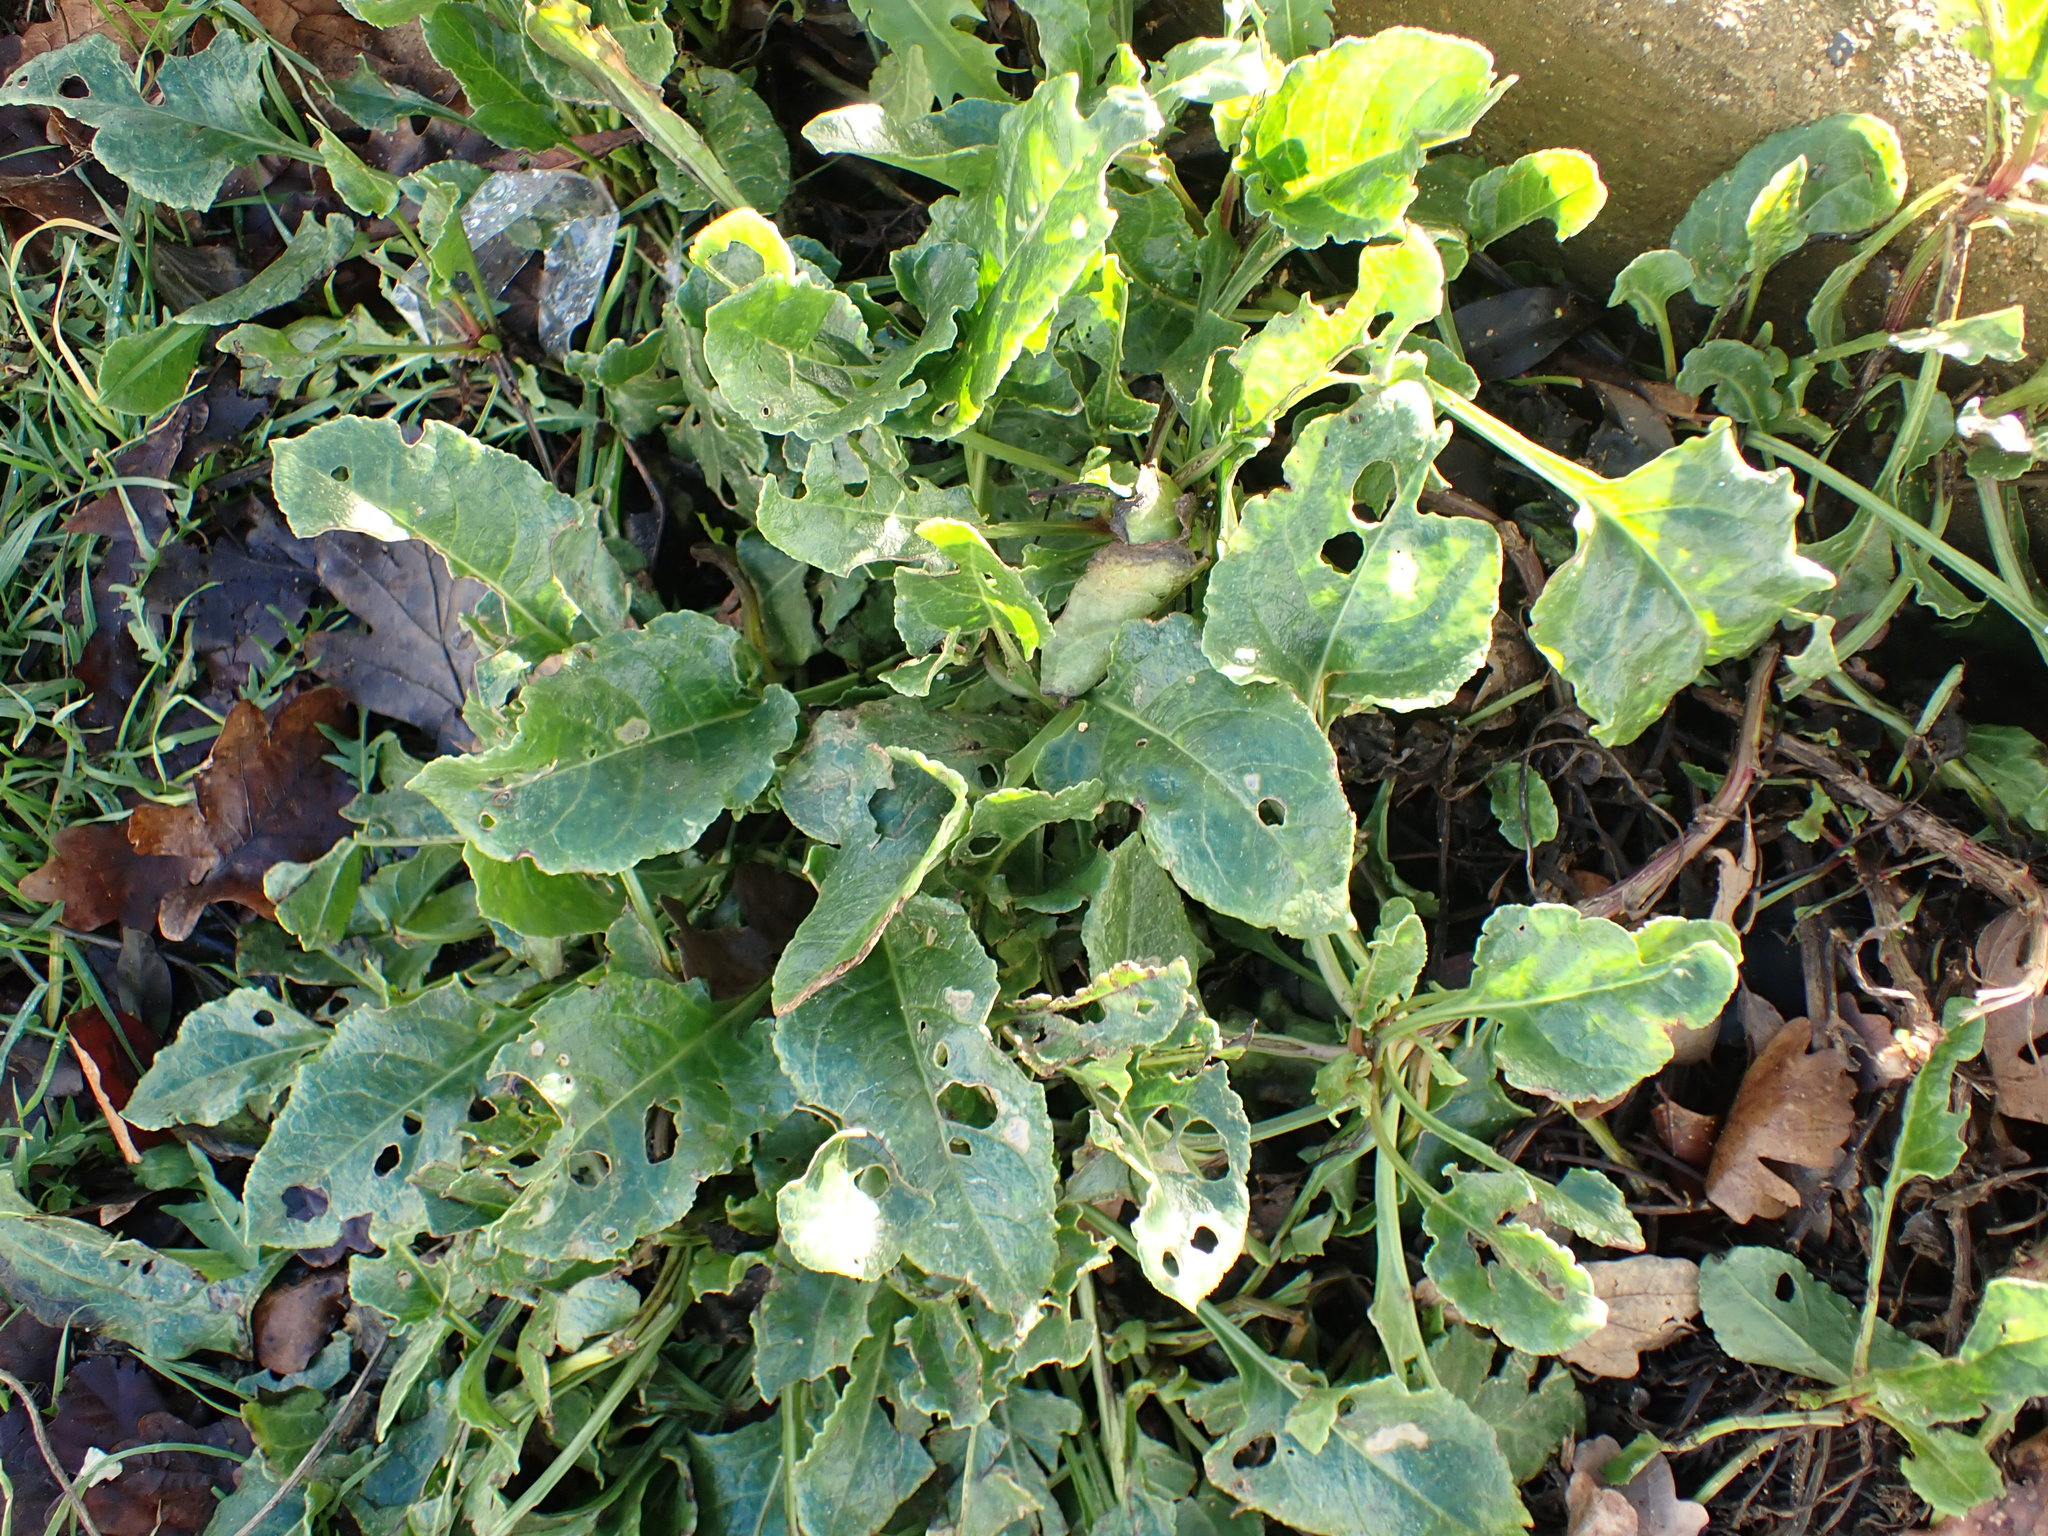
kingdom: Plantae
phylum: Tracheophyta
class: Magnoliopsida
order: Caryophyllales
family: Amaranthaceae
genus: Beta
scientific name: Beta vulgaris
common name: Beet
